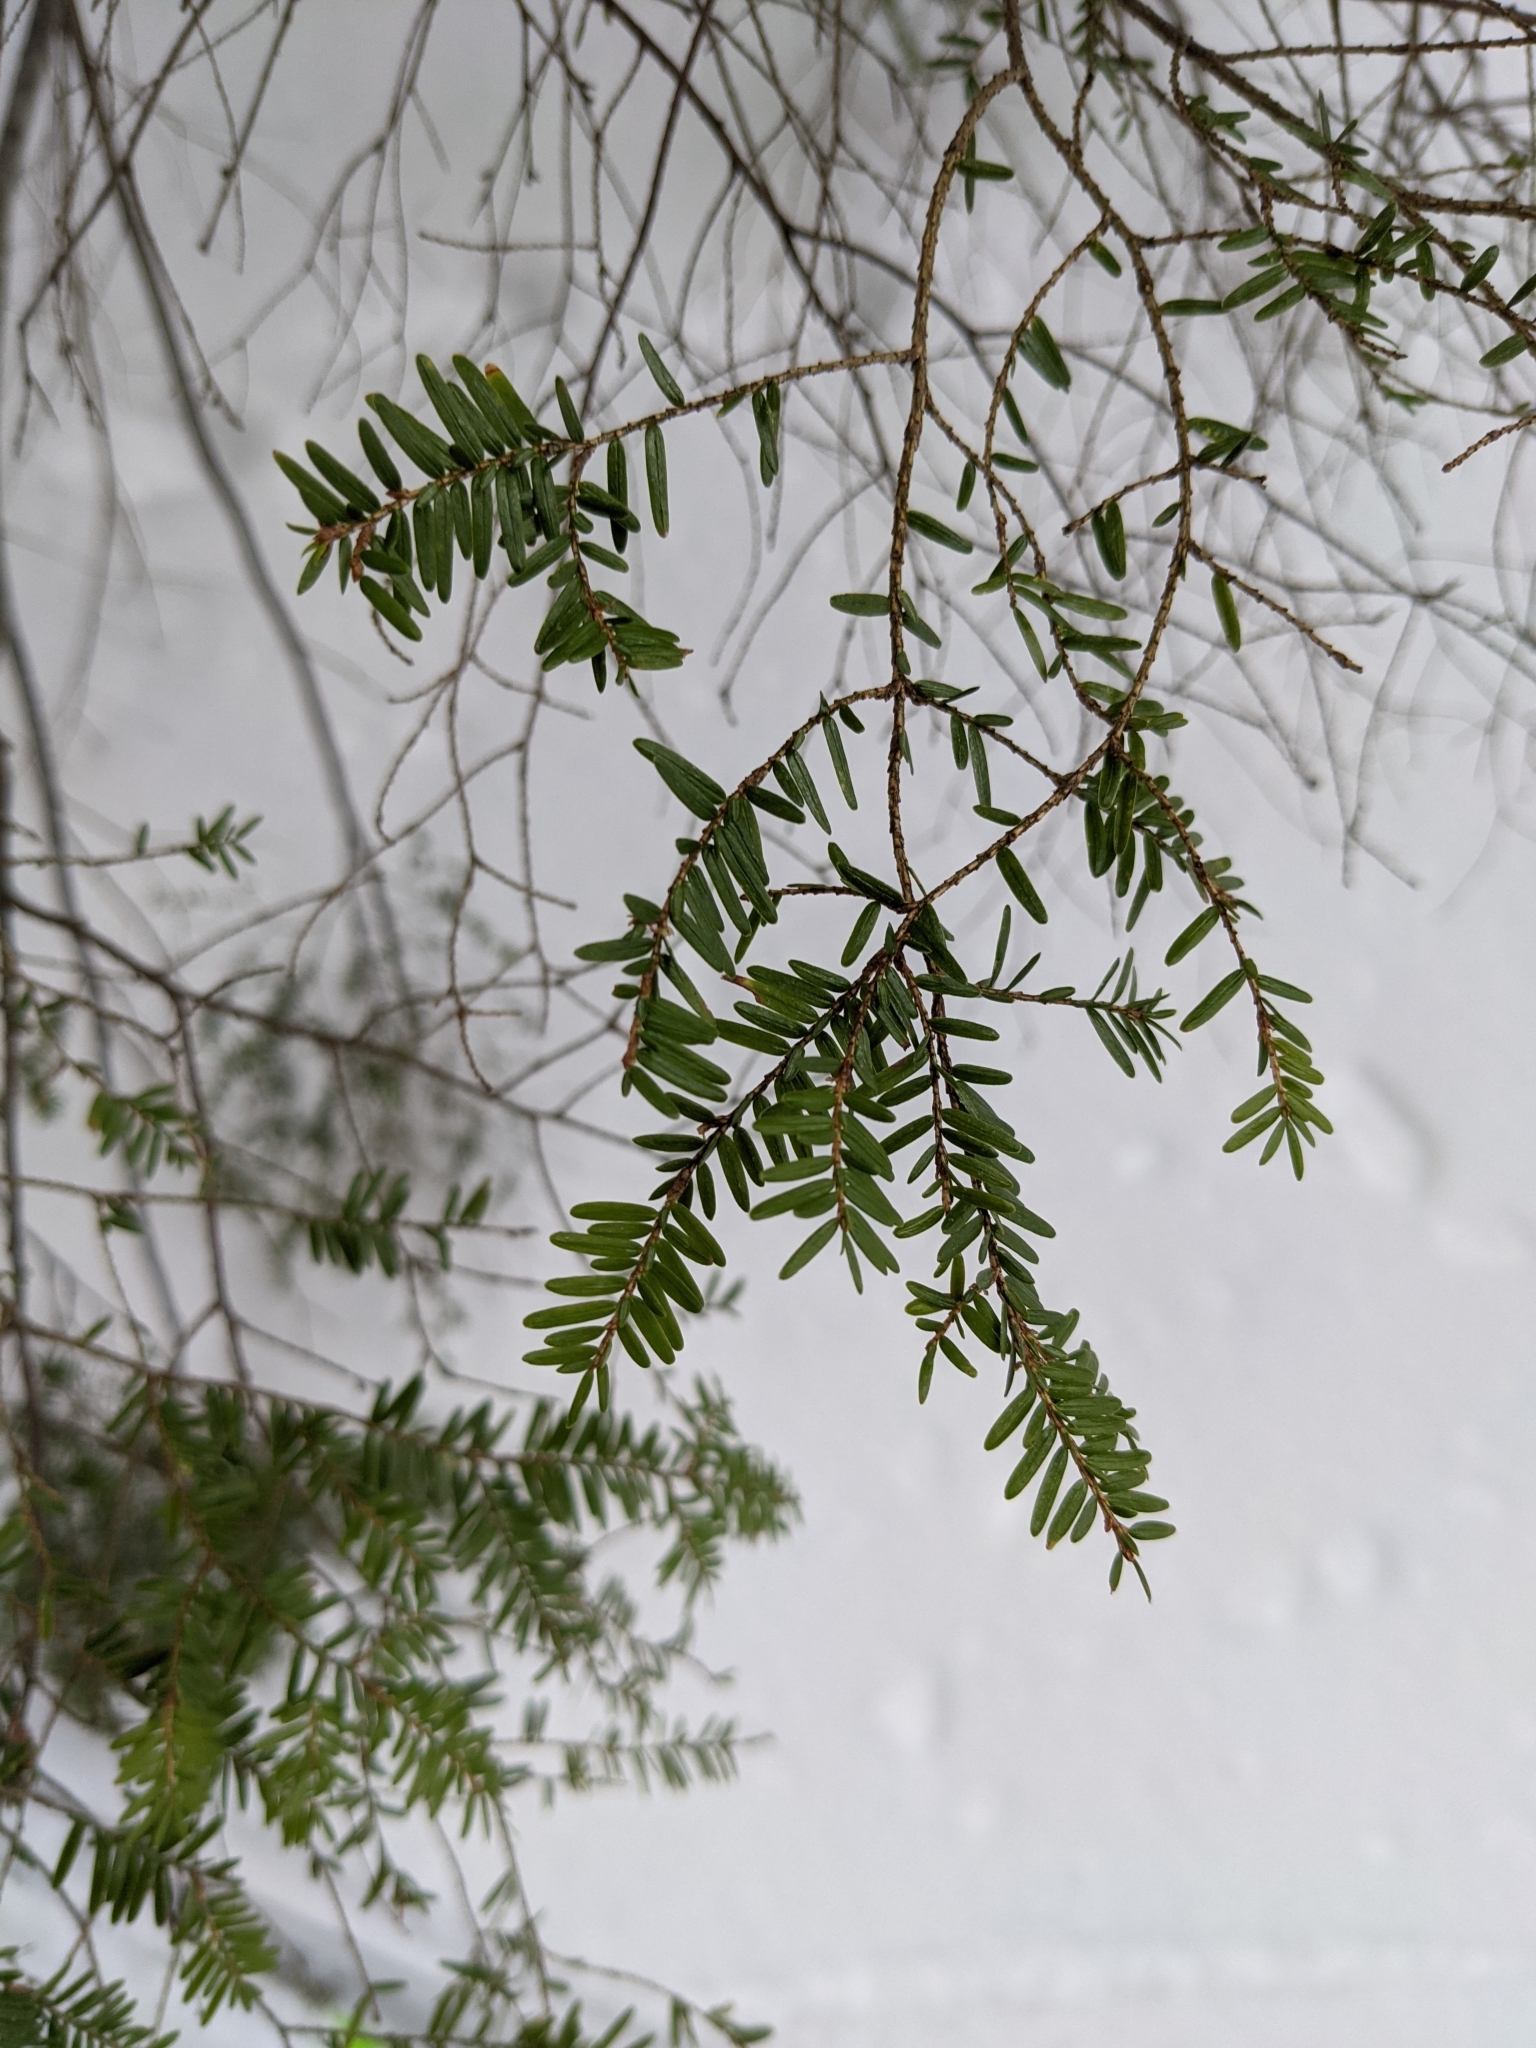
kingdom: Plantae
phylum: Tracheophyta
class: Pinopsida
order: Pinales
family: Pinaceae
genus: Tsuga
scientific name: Tsuga canadensis
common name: Eastern hemlock
